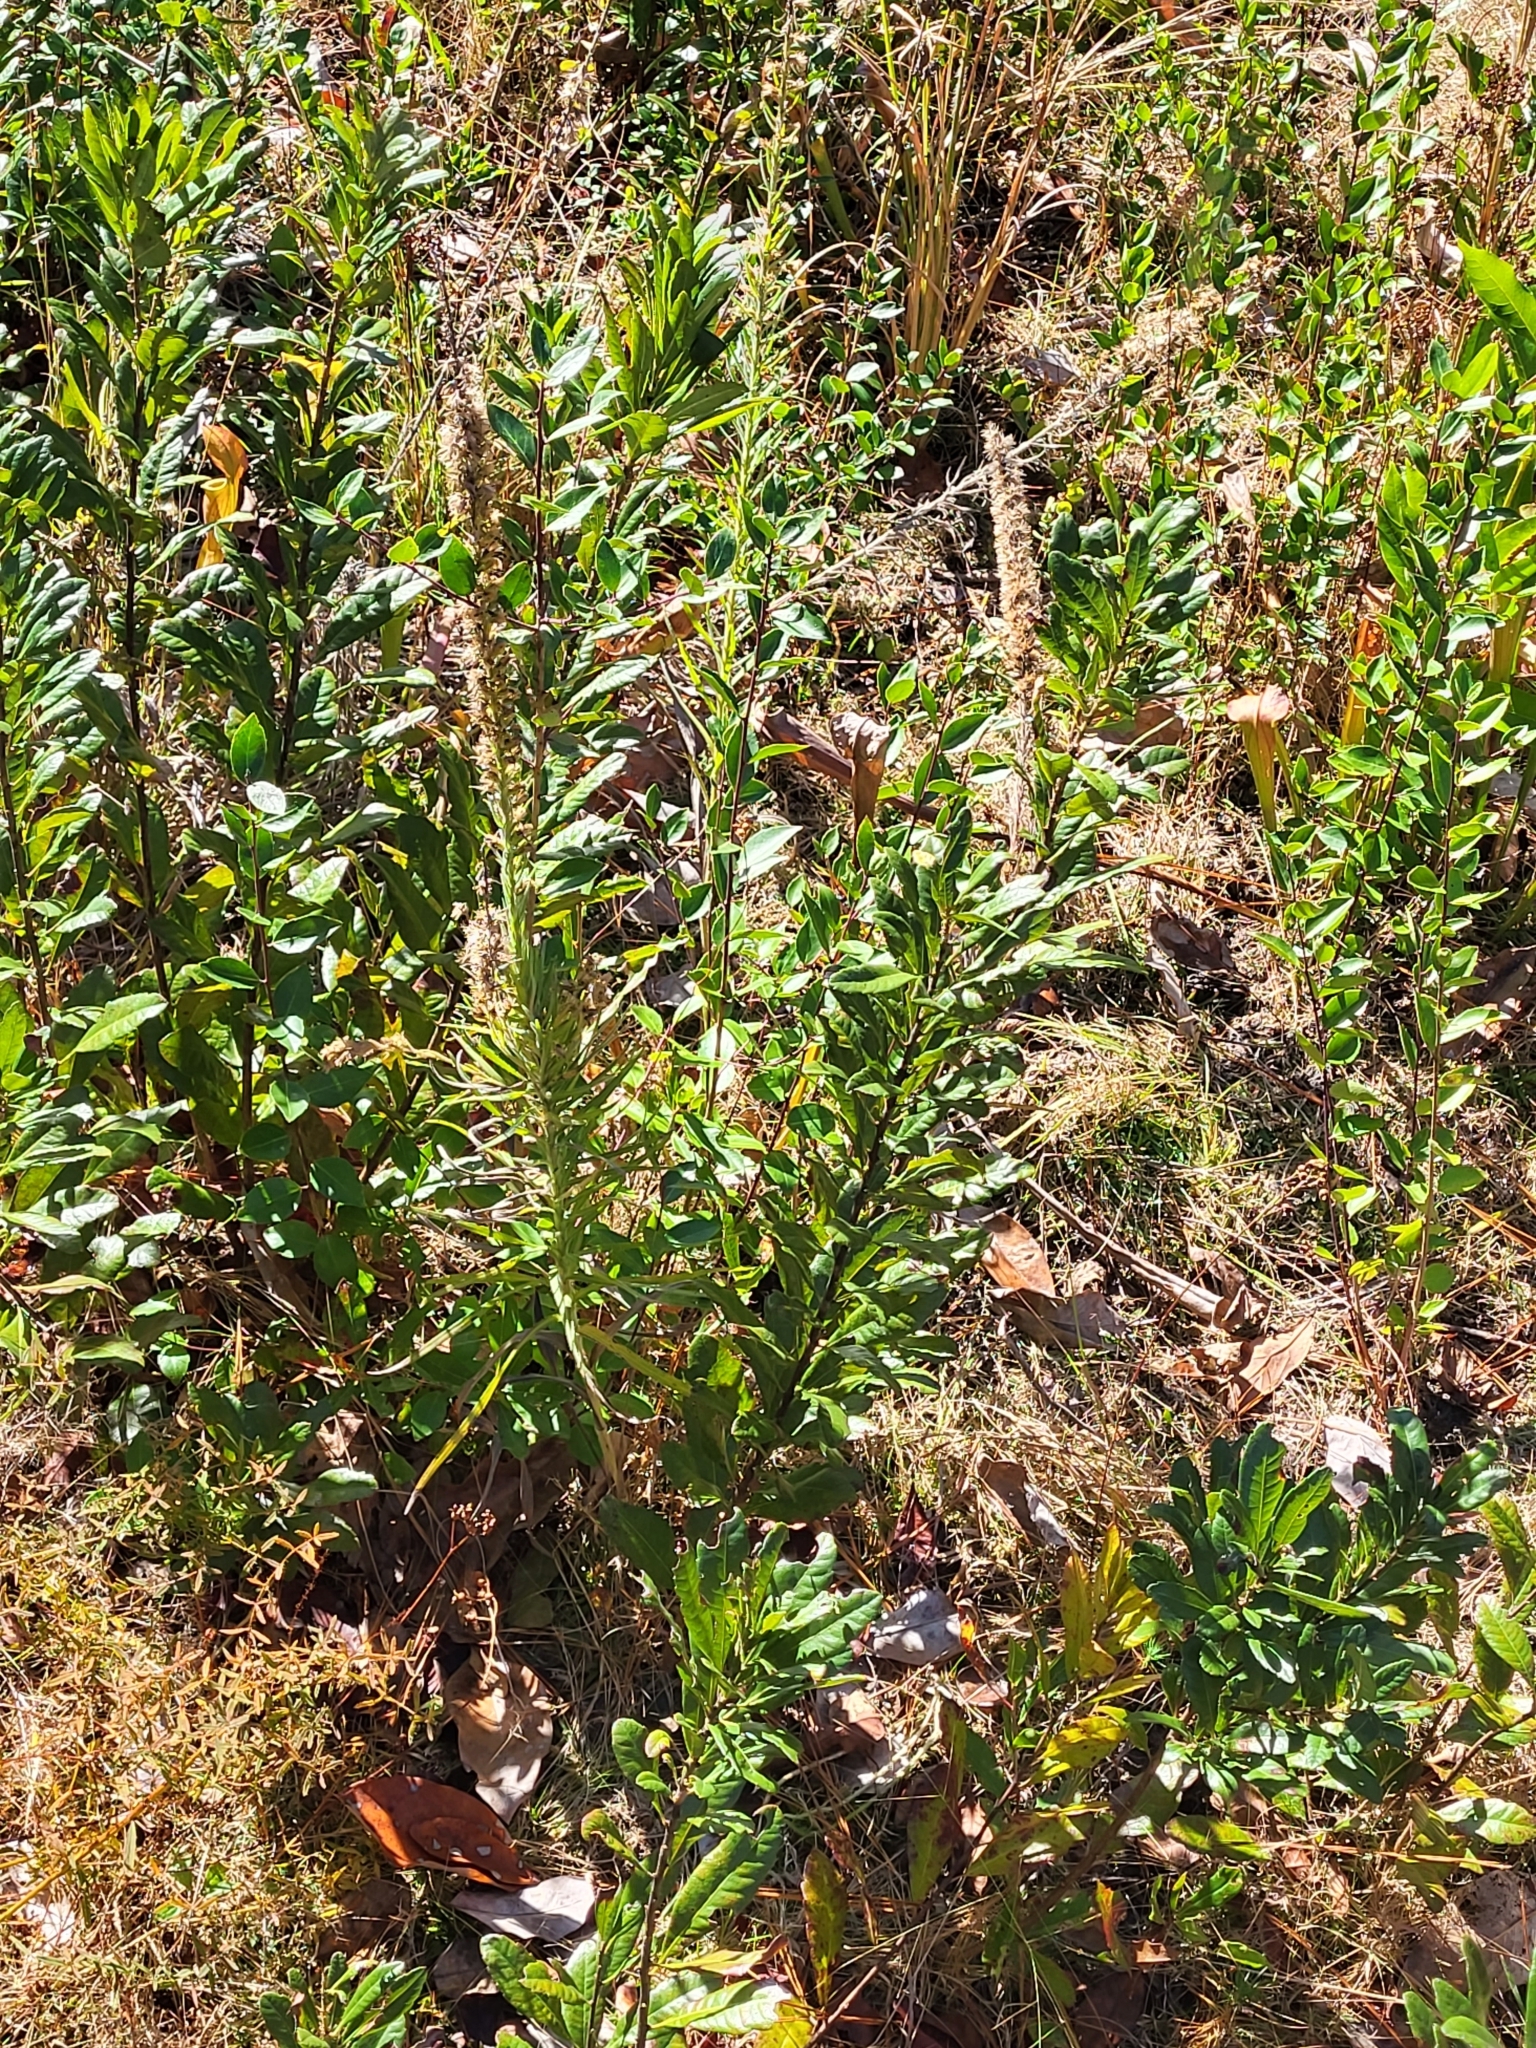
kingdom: Plantae
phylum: Tracheophyta
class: Magnoliopsida
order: Asterales
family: Asteraceae
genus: Liatris
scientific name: Liatris pycnostachya
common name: Cattail gayfeather
